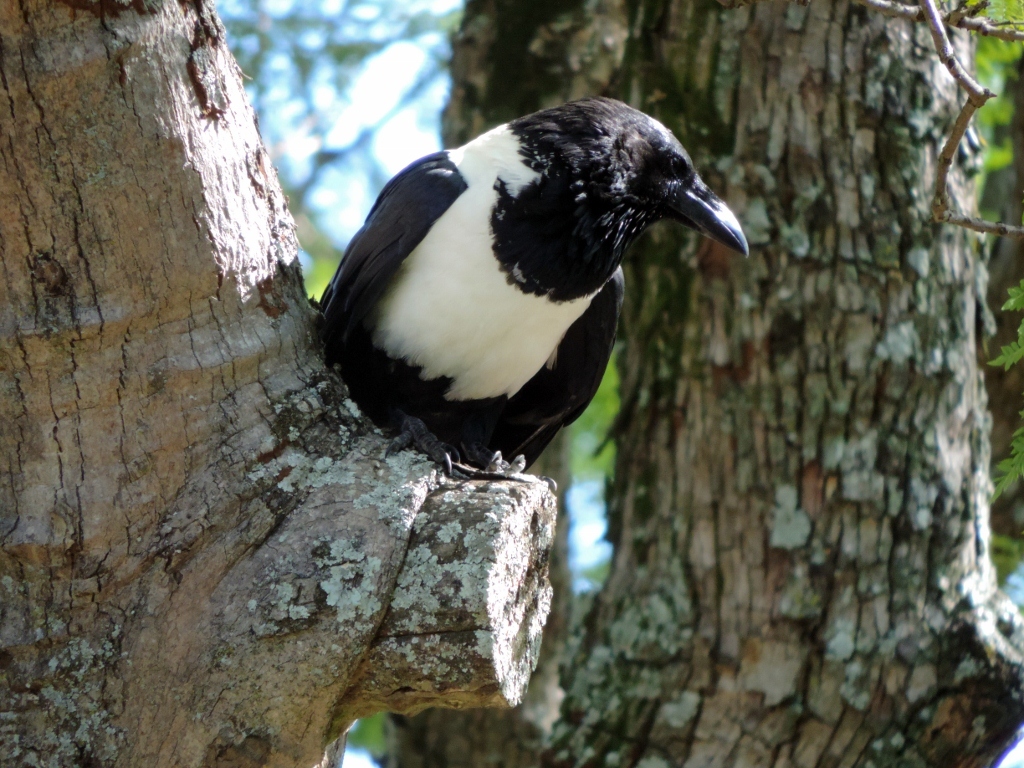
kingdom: Animalia
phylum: Chordata
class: Aves
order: Passeriformes
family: Corvidae
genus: Corvus
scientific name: Corvus albus
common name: Pied crow
